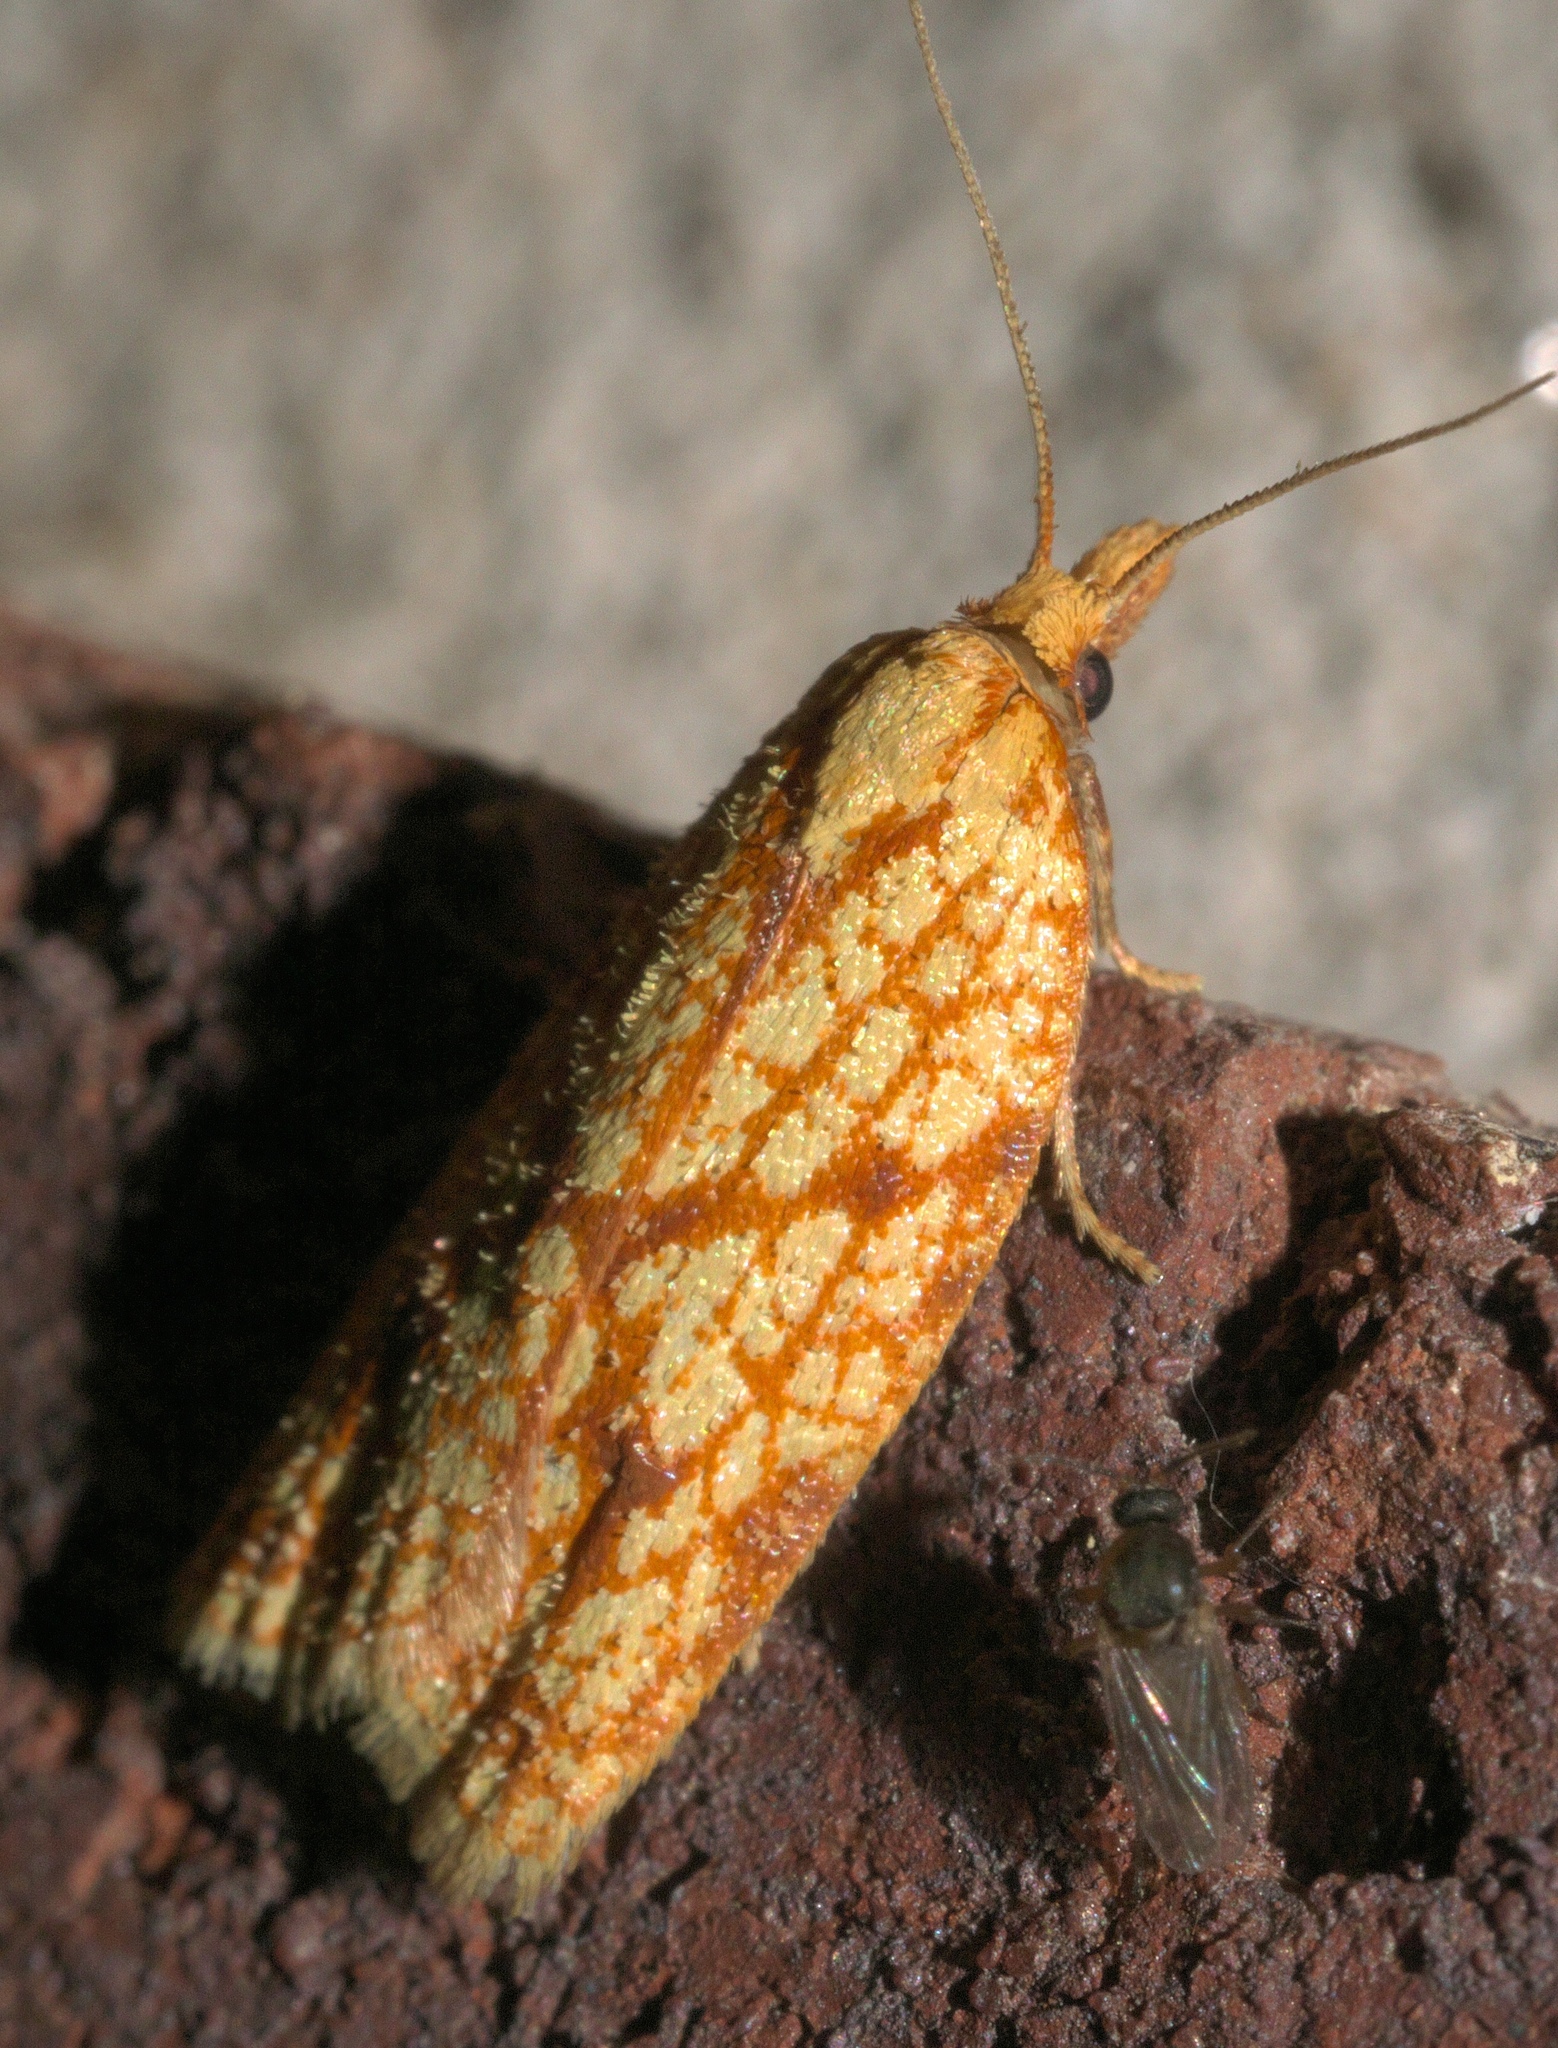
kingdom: Animalia
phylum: Arthropoda
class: Insecta
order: Lepidoptera
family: Tortricidae
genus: Sparganothis
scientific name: Sparganothis sulfureana
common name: Sparganothis fruitworm moth
